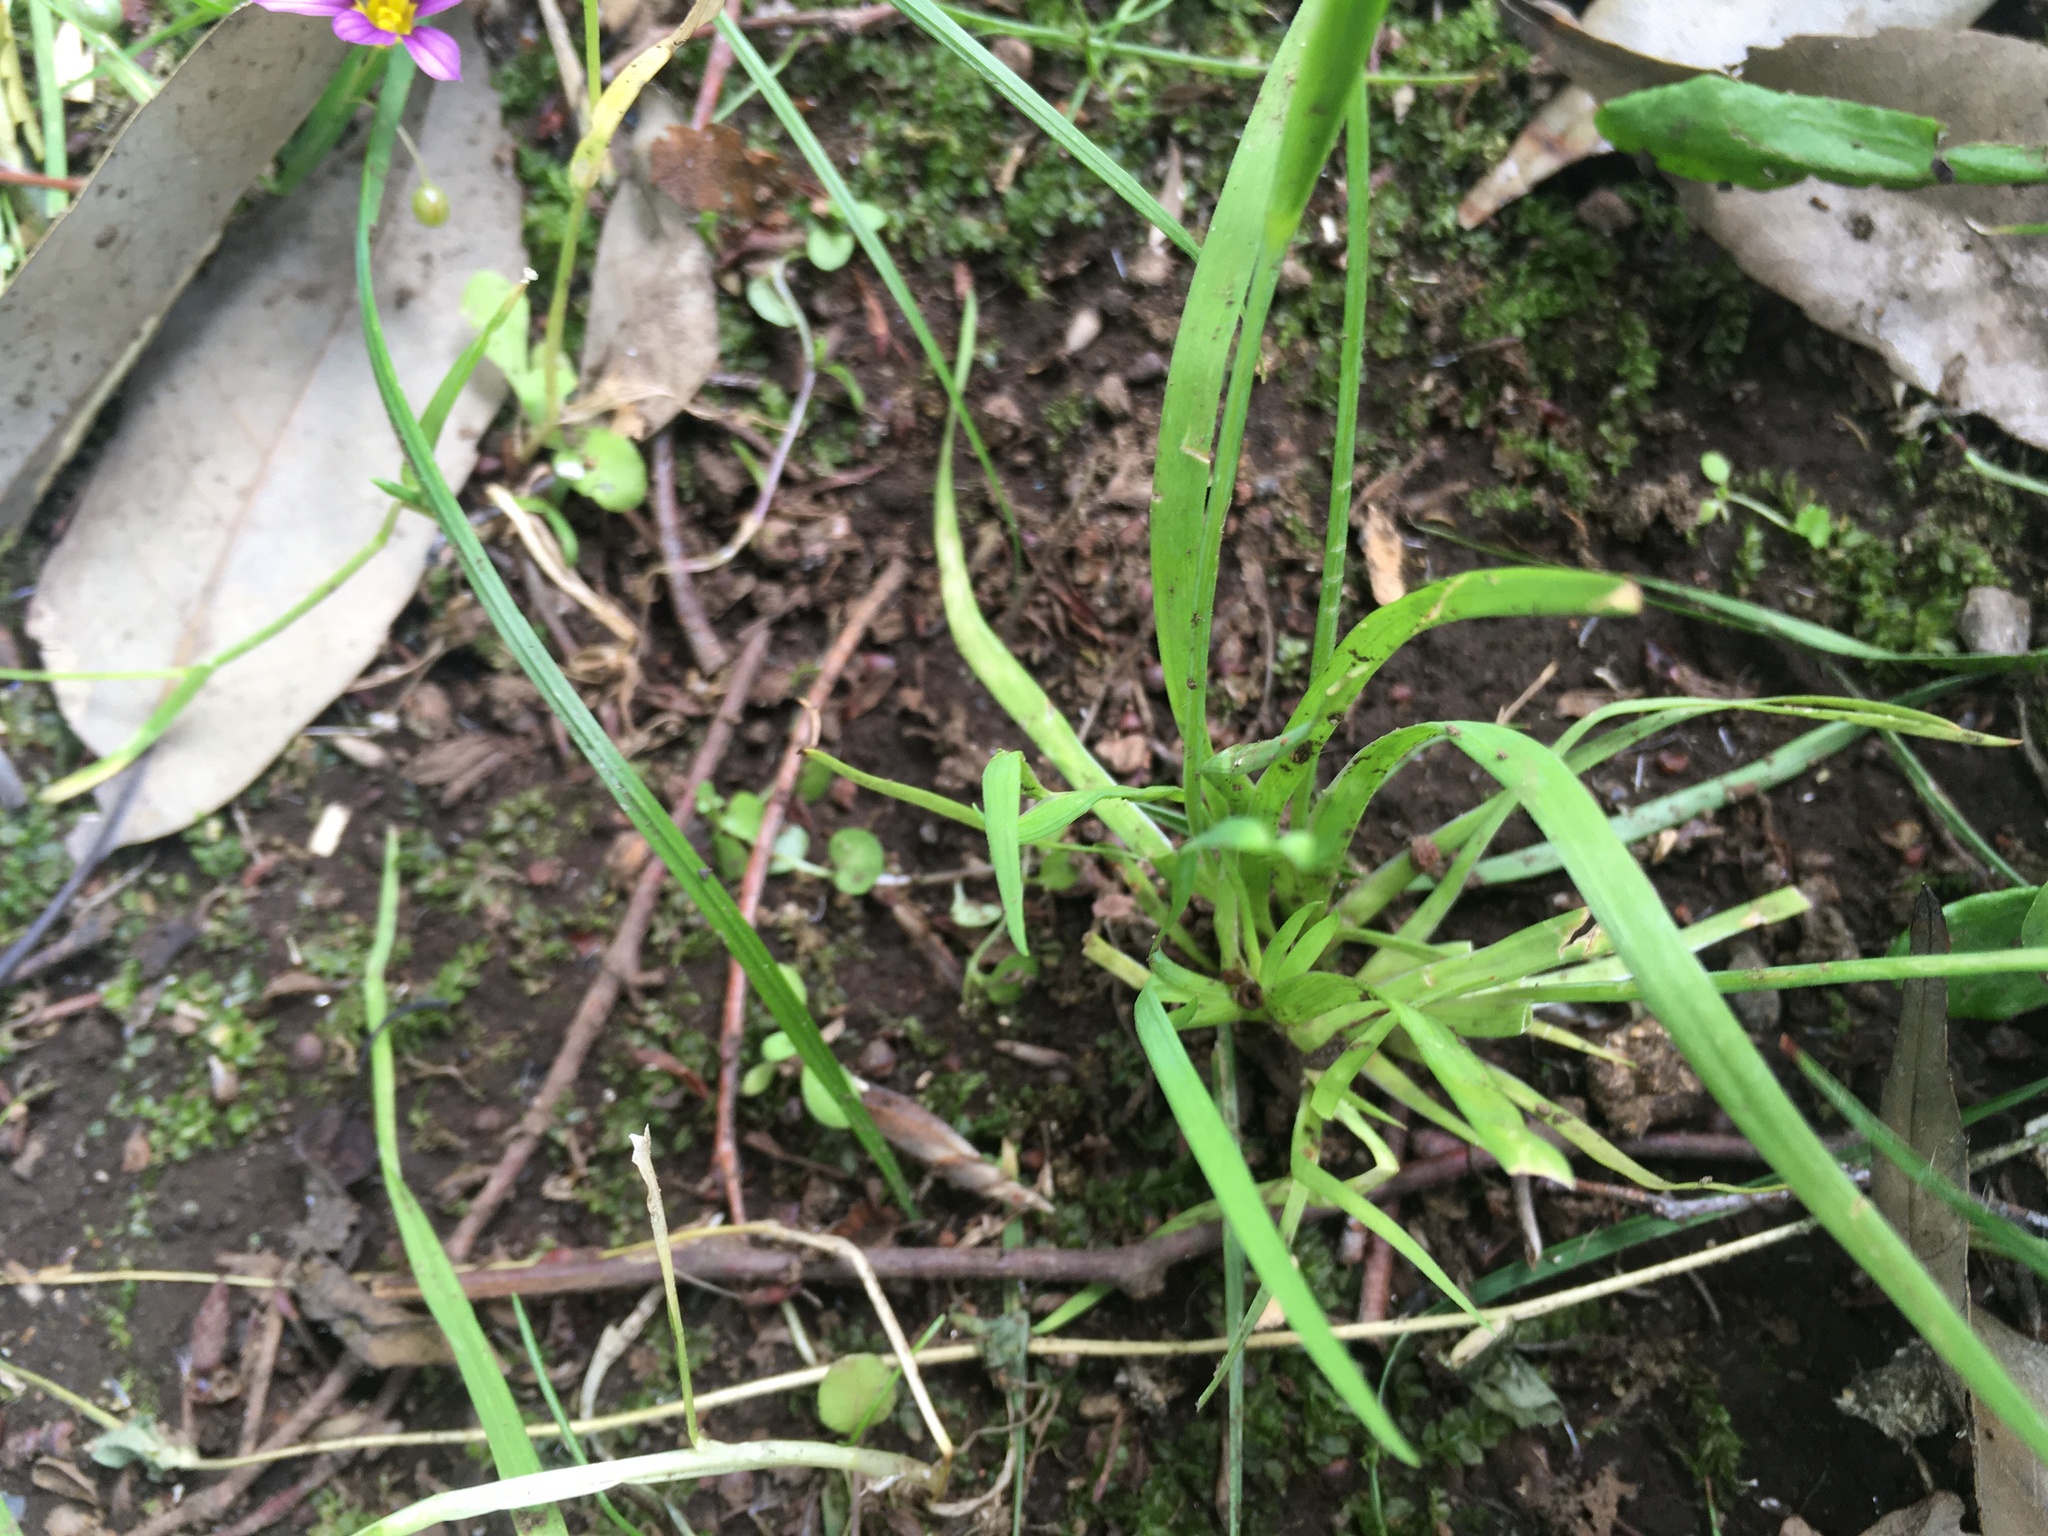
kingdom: Plantae
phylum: Tracheophyta
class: Liliopsida
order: Asparagales
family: Iridaceae
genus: Sisyrinchium
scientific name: Sisyrinchium micranthum
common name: Bermuda pigroot
